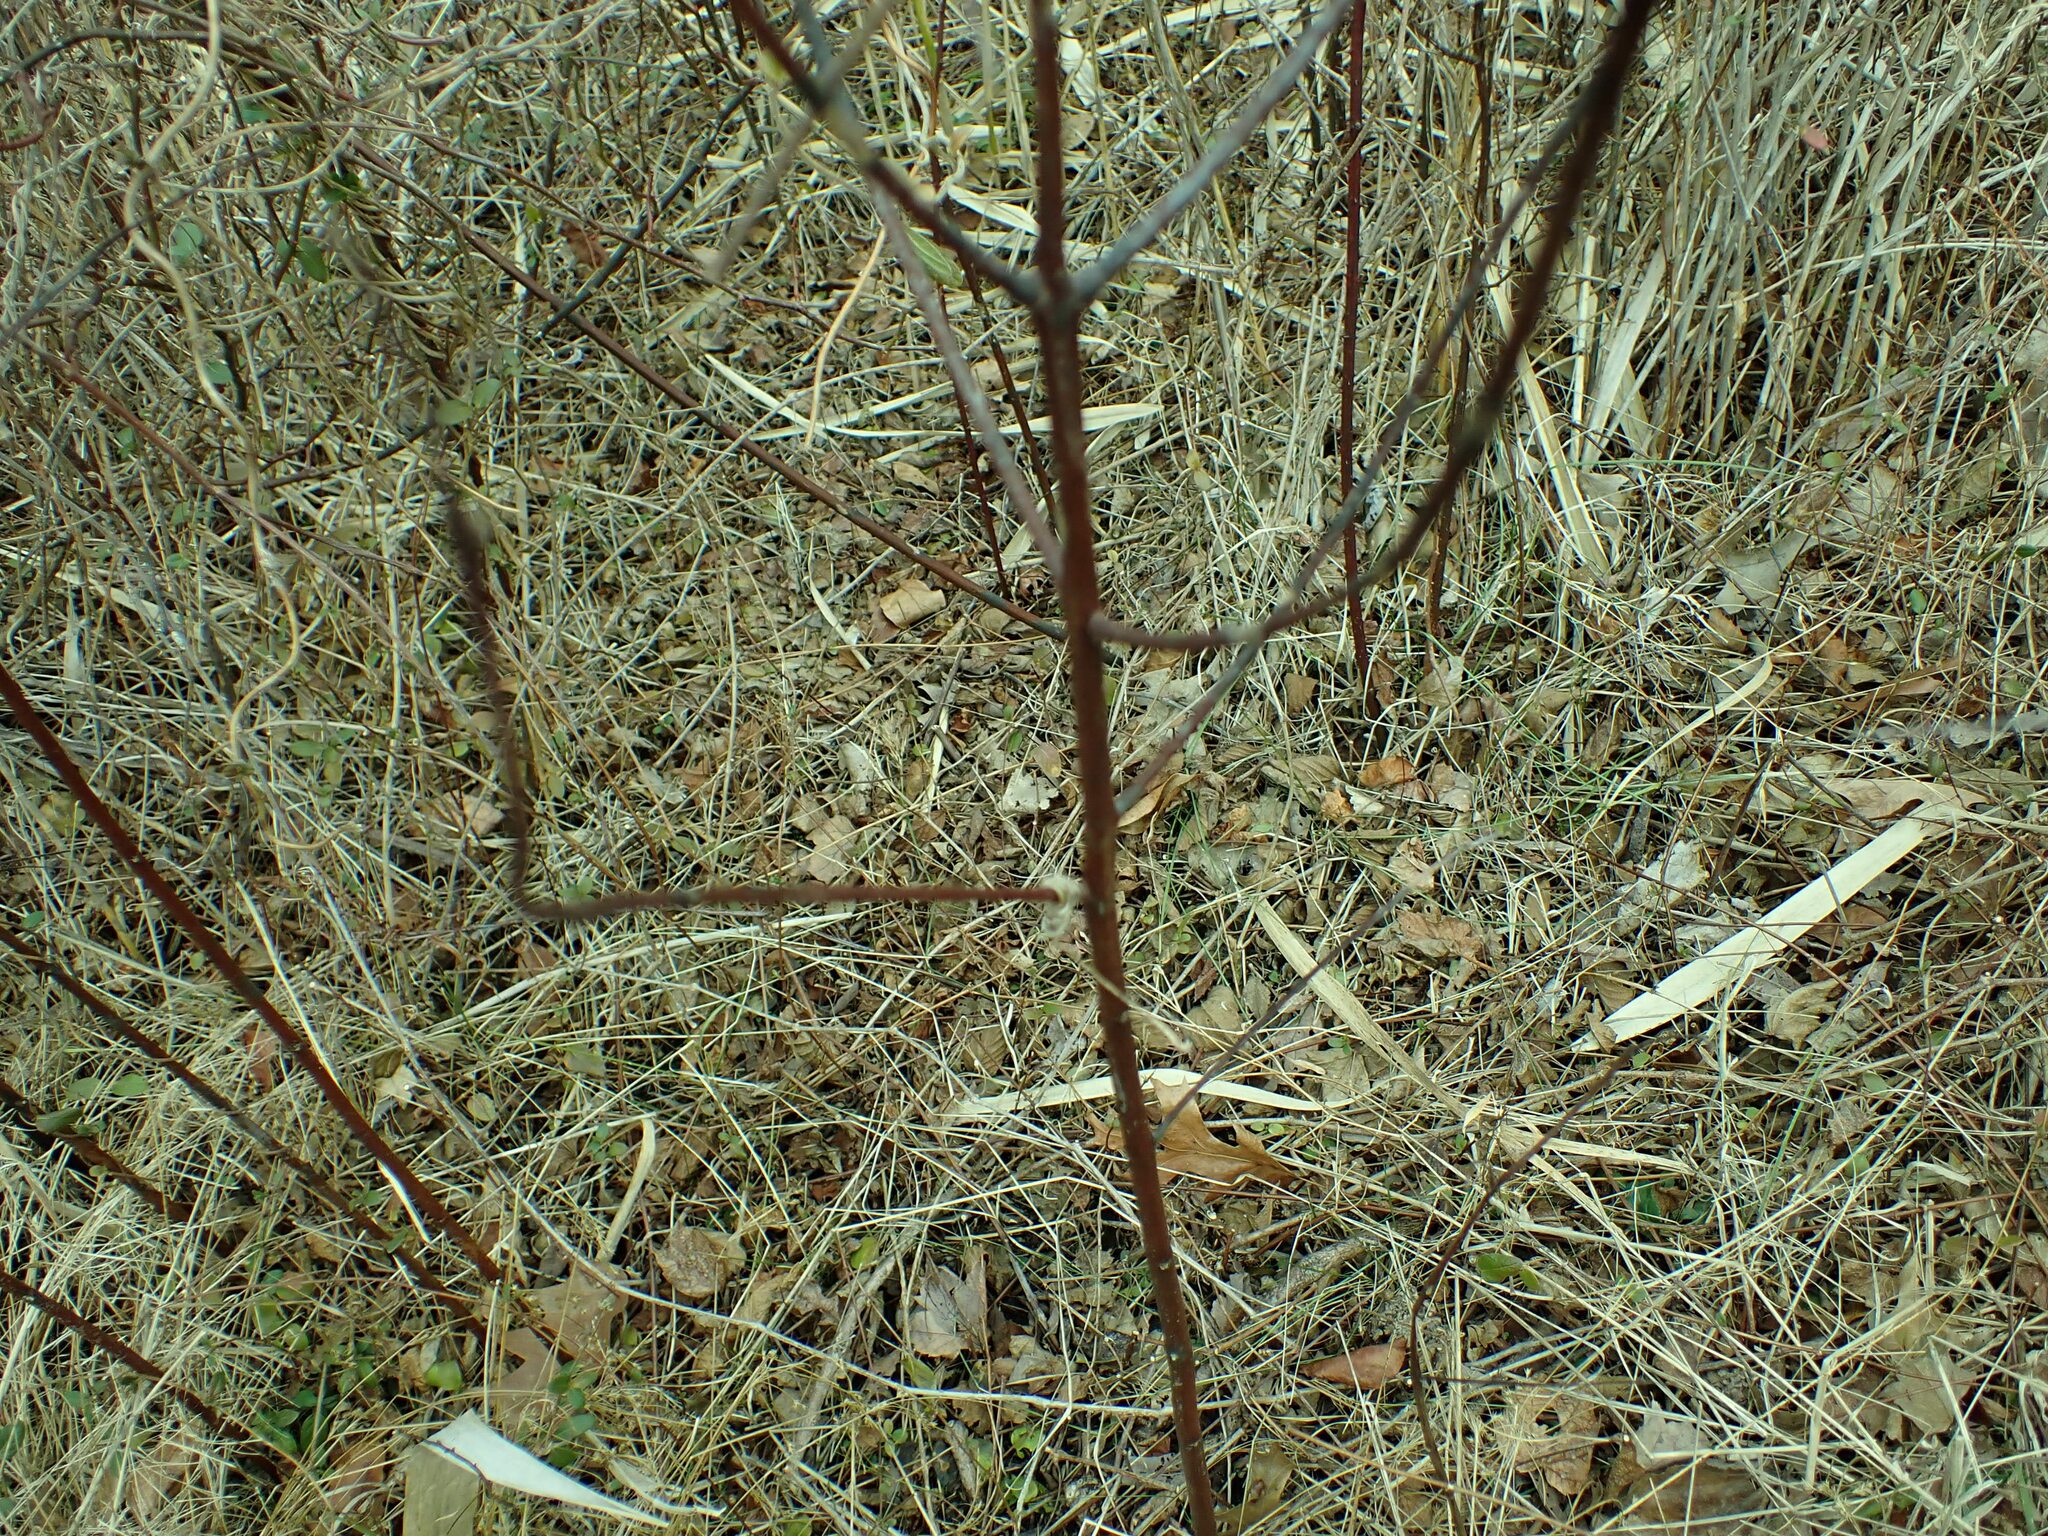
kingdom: Plantae
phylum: Tracheophyta
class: Magnoliopsida
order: Gentianales
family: Apocynaceae
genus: Apocynum
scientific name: Apocynum cannabinum
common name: Hemp dogbane
